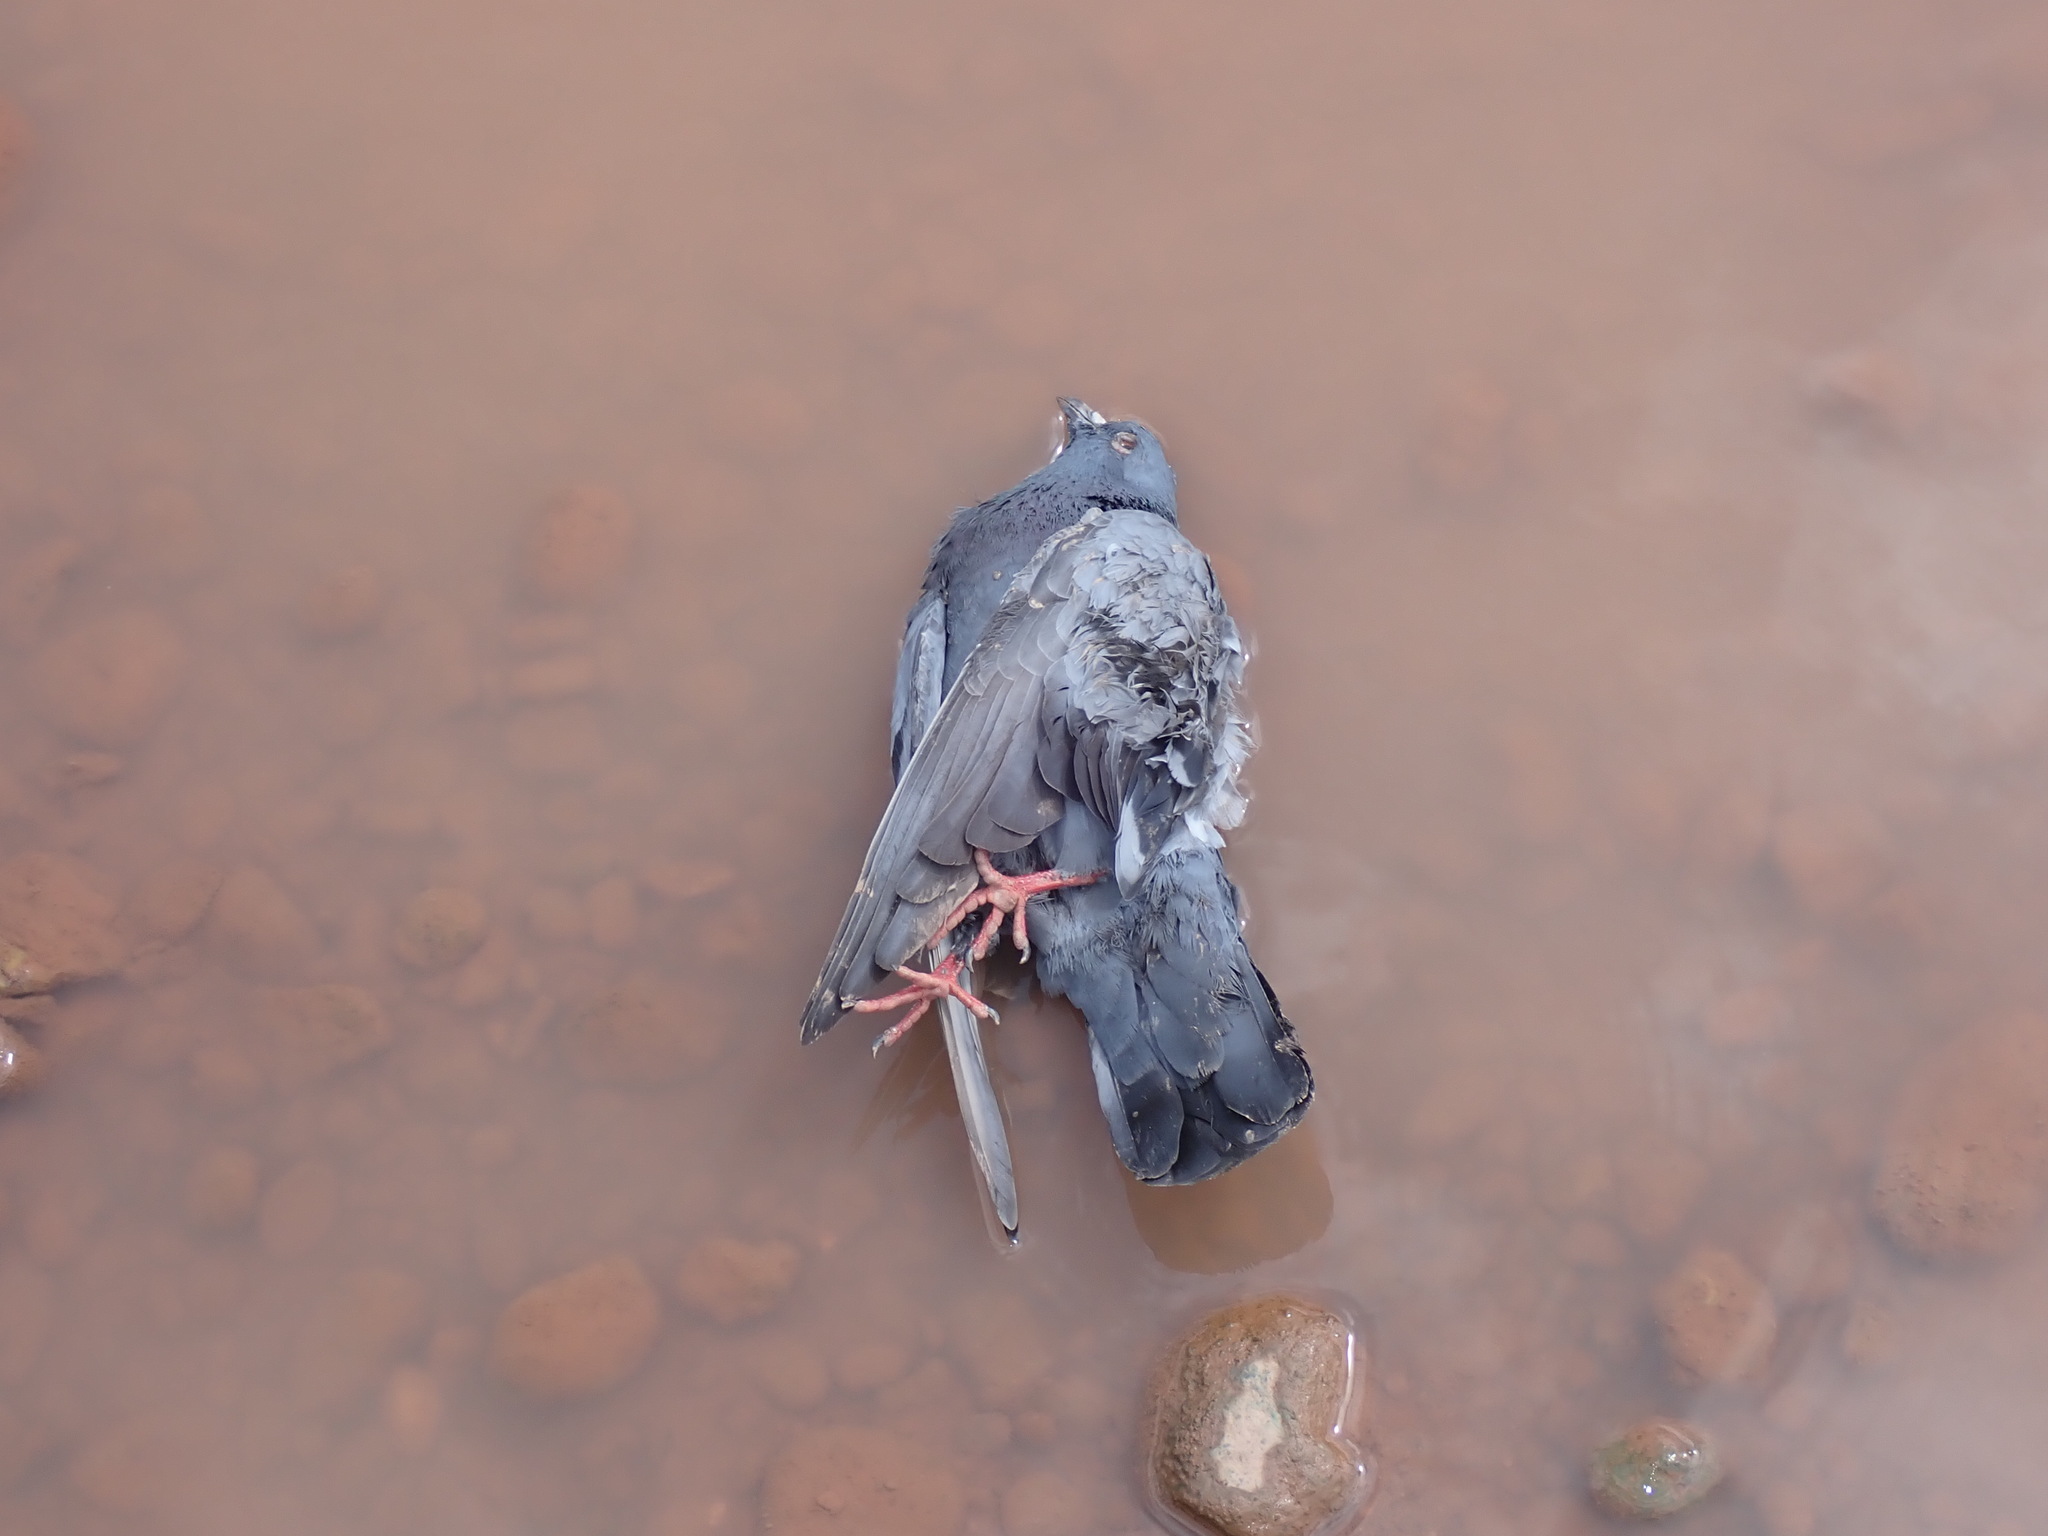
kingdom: Animalia
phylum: Chordata
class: Aves
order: Columbiformes
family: Columbidae
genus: Columba
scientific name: Columba livia
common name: Rock pigeon
